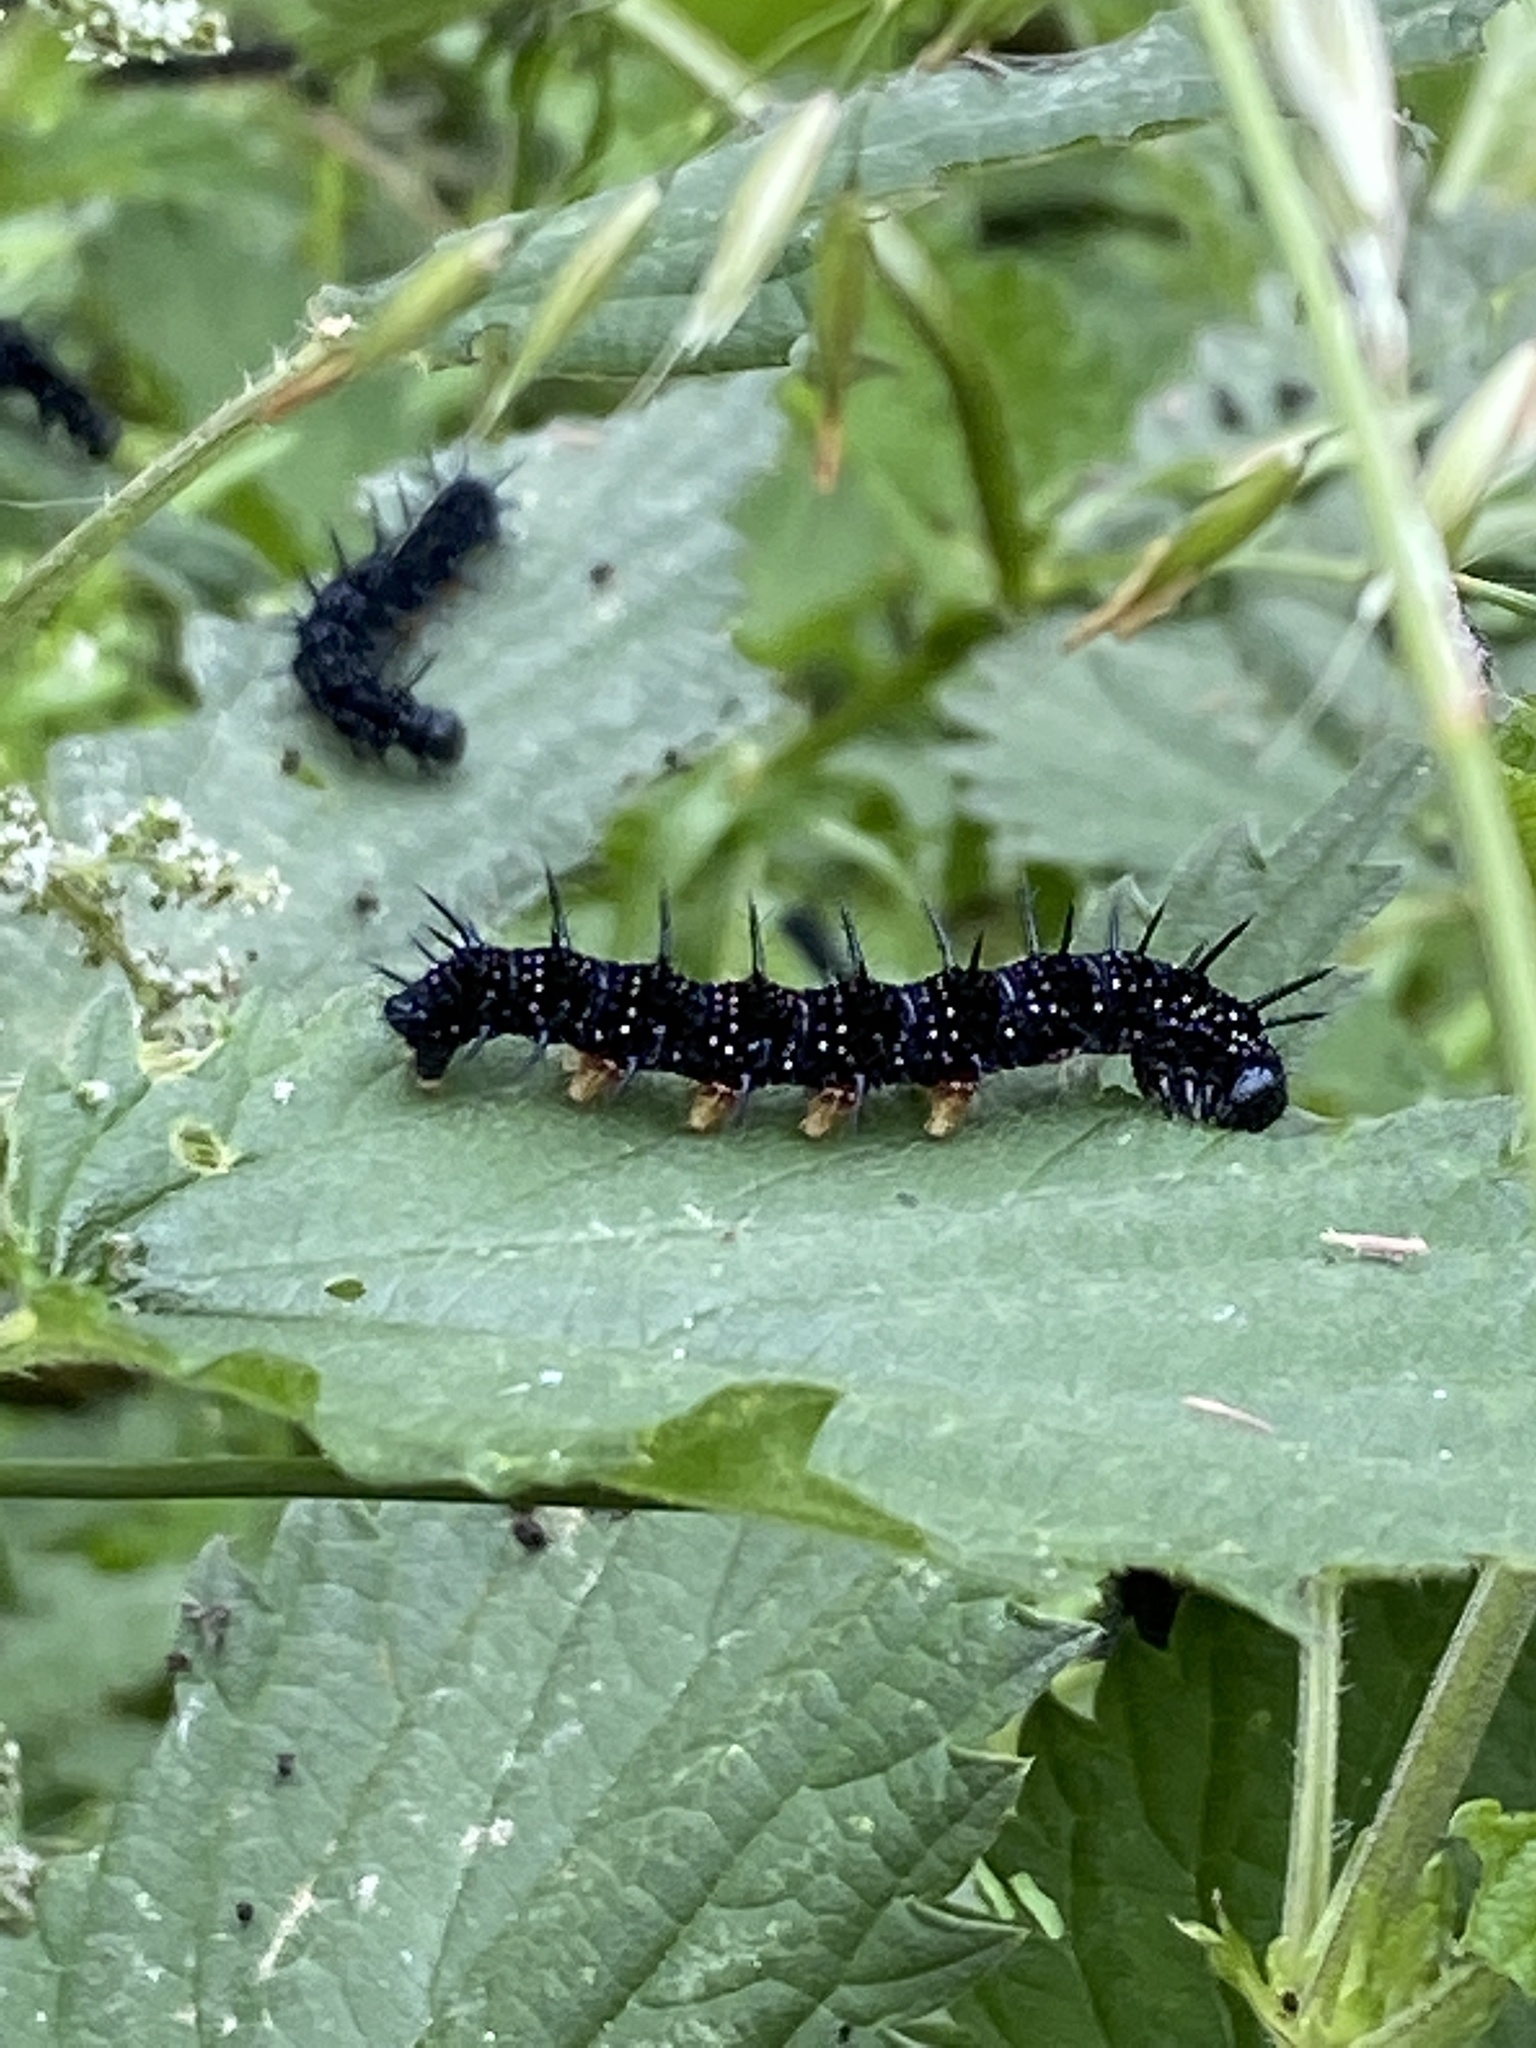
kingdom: Animalia
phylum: Arthropoda
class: Insecta
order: Lepidoptera
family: Nymphalidae
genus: Aglais
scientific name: Aglais io
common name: Peacock
